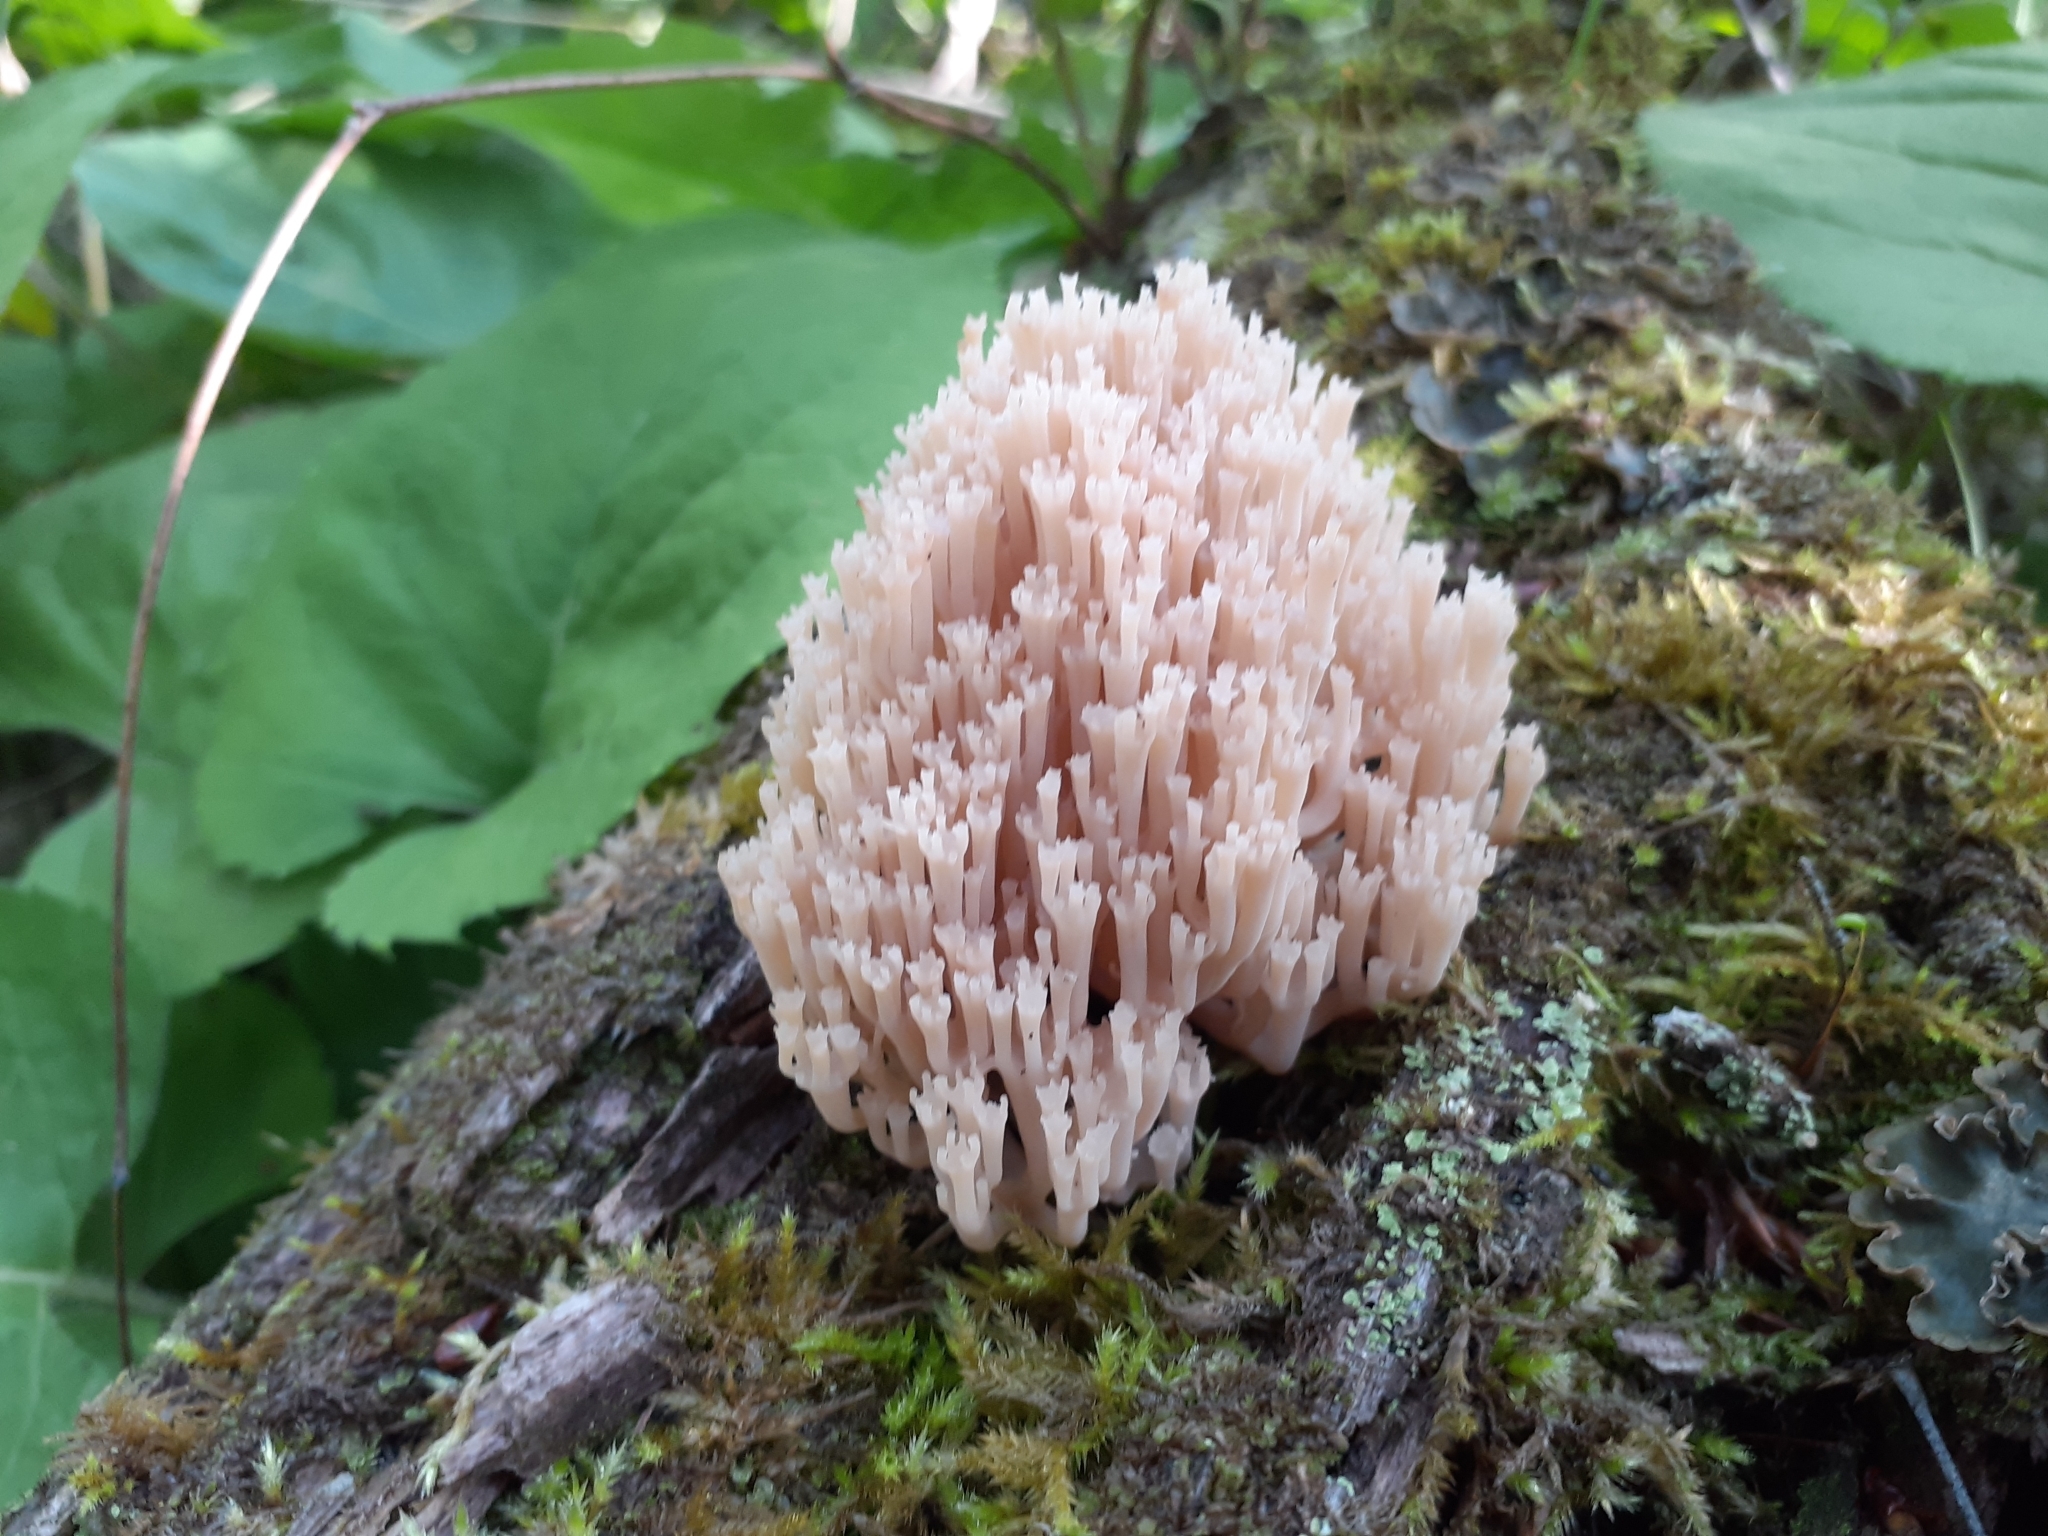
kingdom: Fungi
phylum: Basidiomycota
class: Agaricomycetes
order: Russulales
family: Auriscalpiaceae
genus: Artomyces
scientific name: Artomyces pyxidatus
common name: Crown-tipped coral fungus
